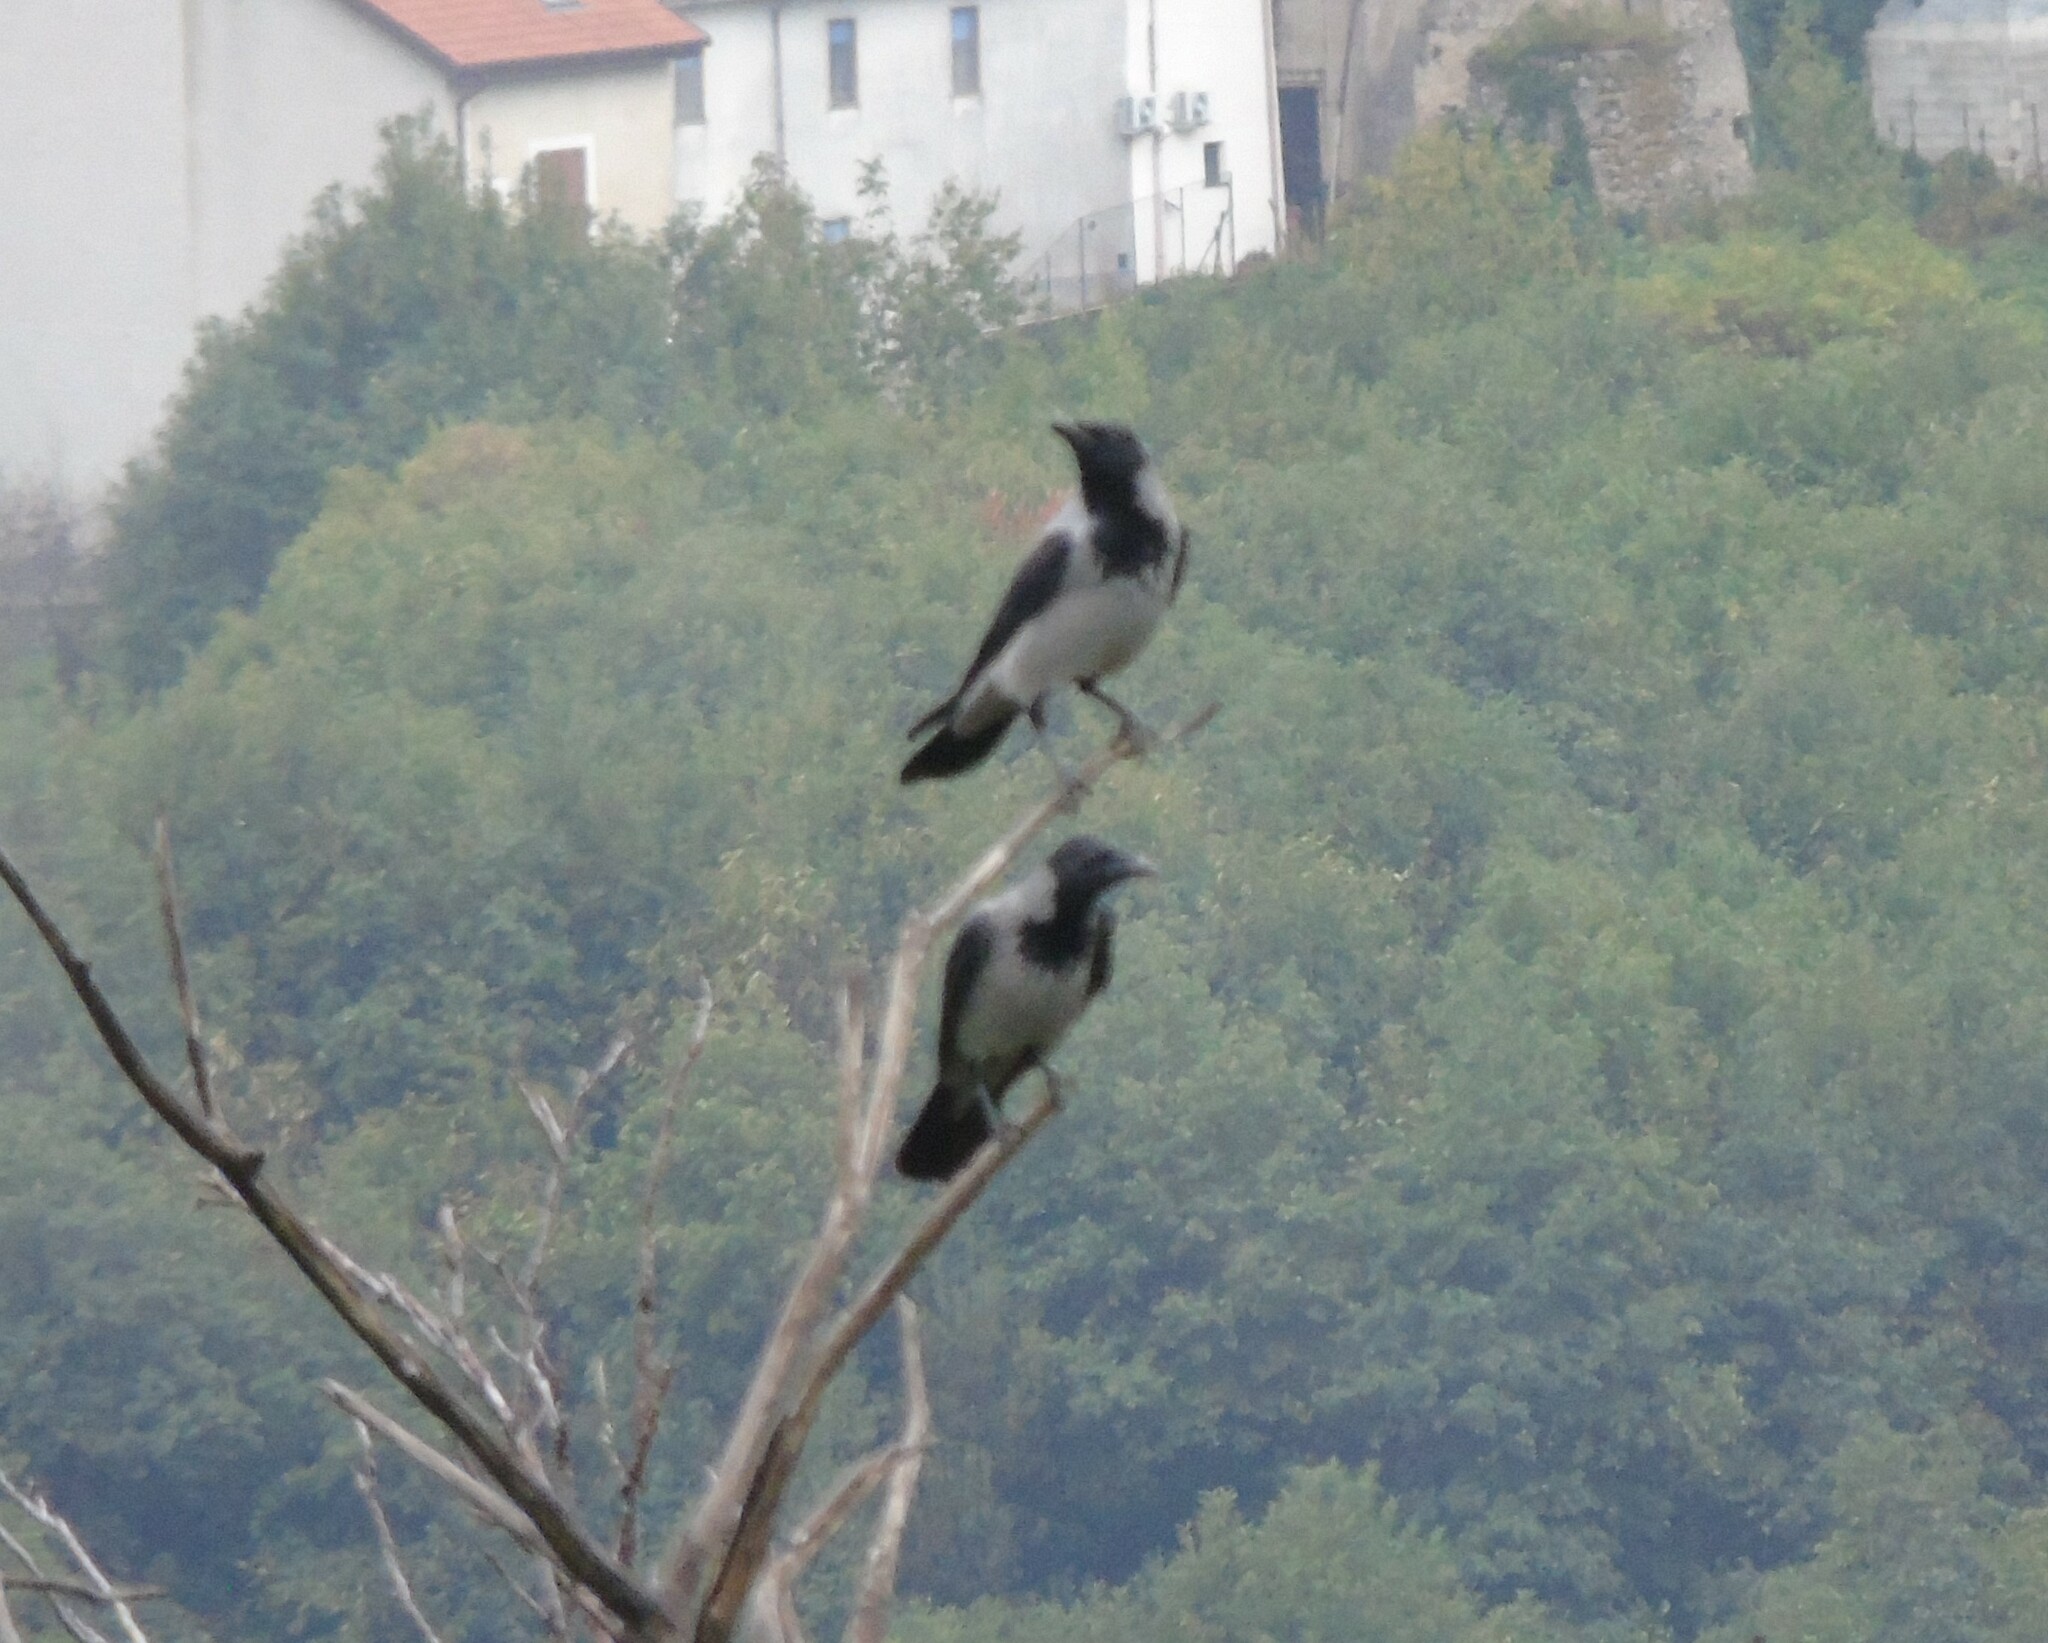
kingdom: Animalia
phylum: Chordata
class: Aves
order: Passeriformes
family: Corvidae
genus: Corvus
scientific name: Corvus cornix
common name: Hooded crow
